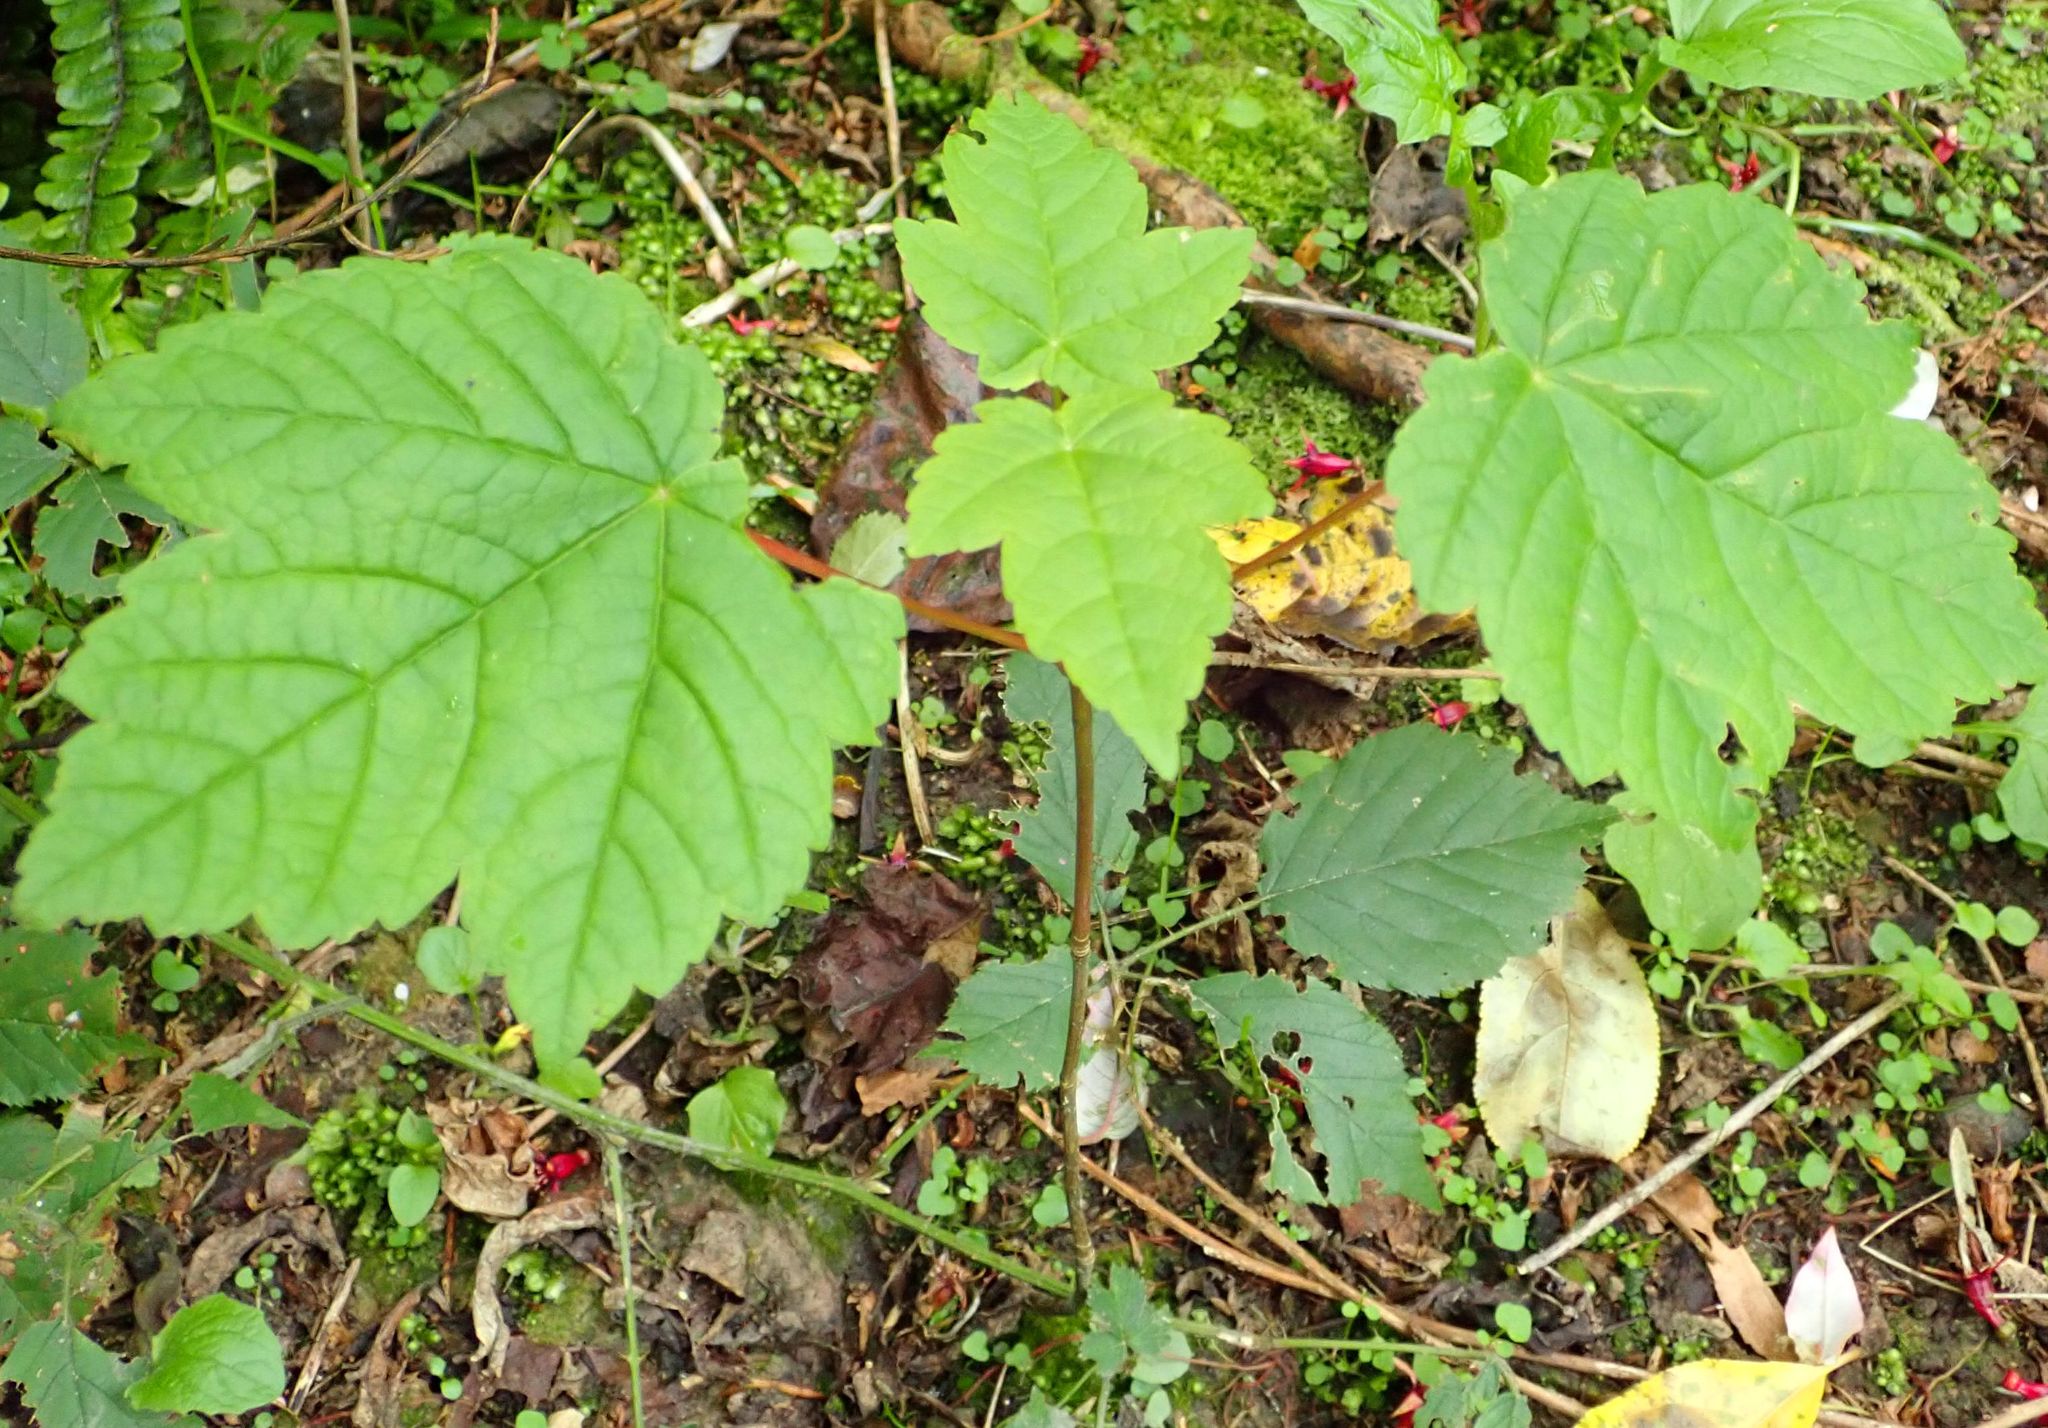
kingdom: Plantae
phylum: Tracheophyta
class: Magnoliopsida
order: Sapindales
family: Sapindaceae
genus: Acer
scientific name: Acer pseudoplatanus
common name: Sycamore
